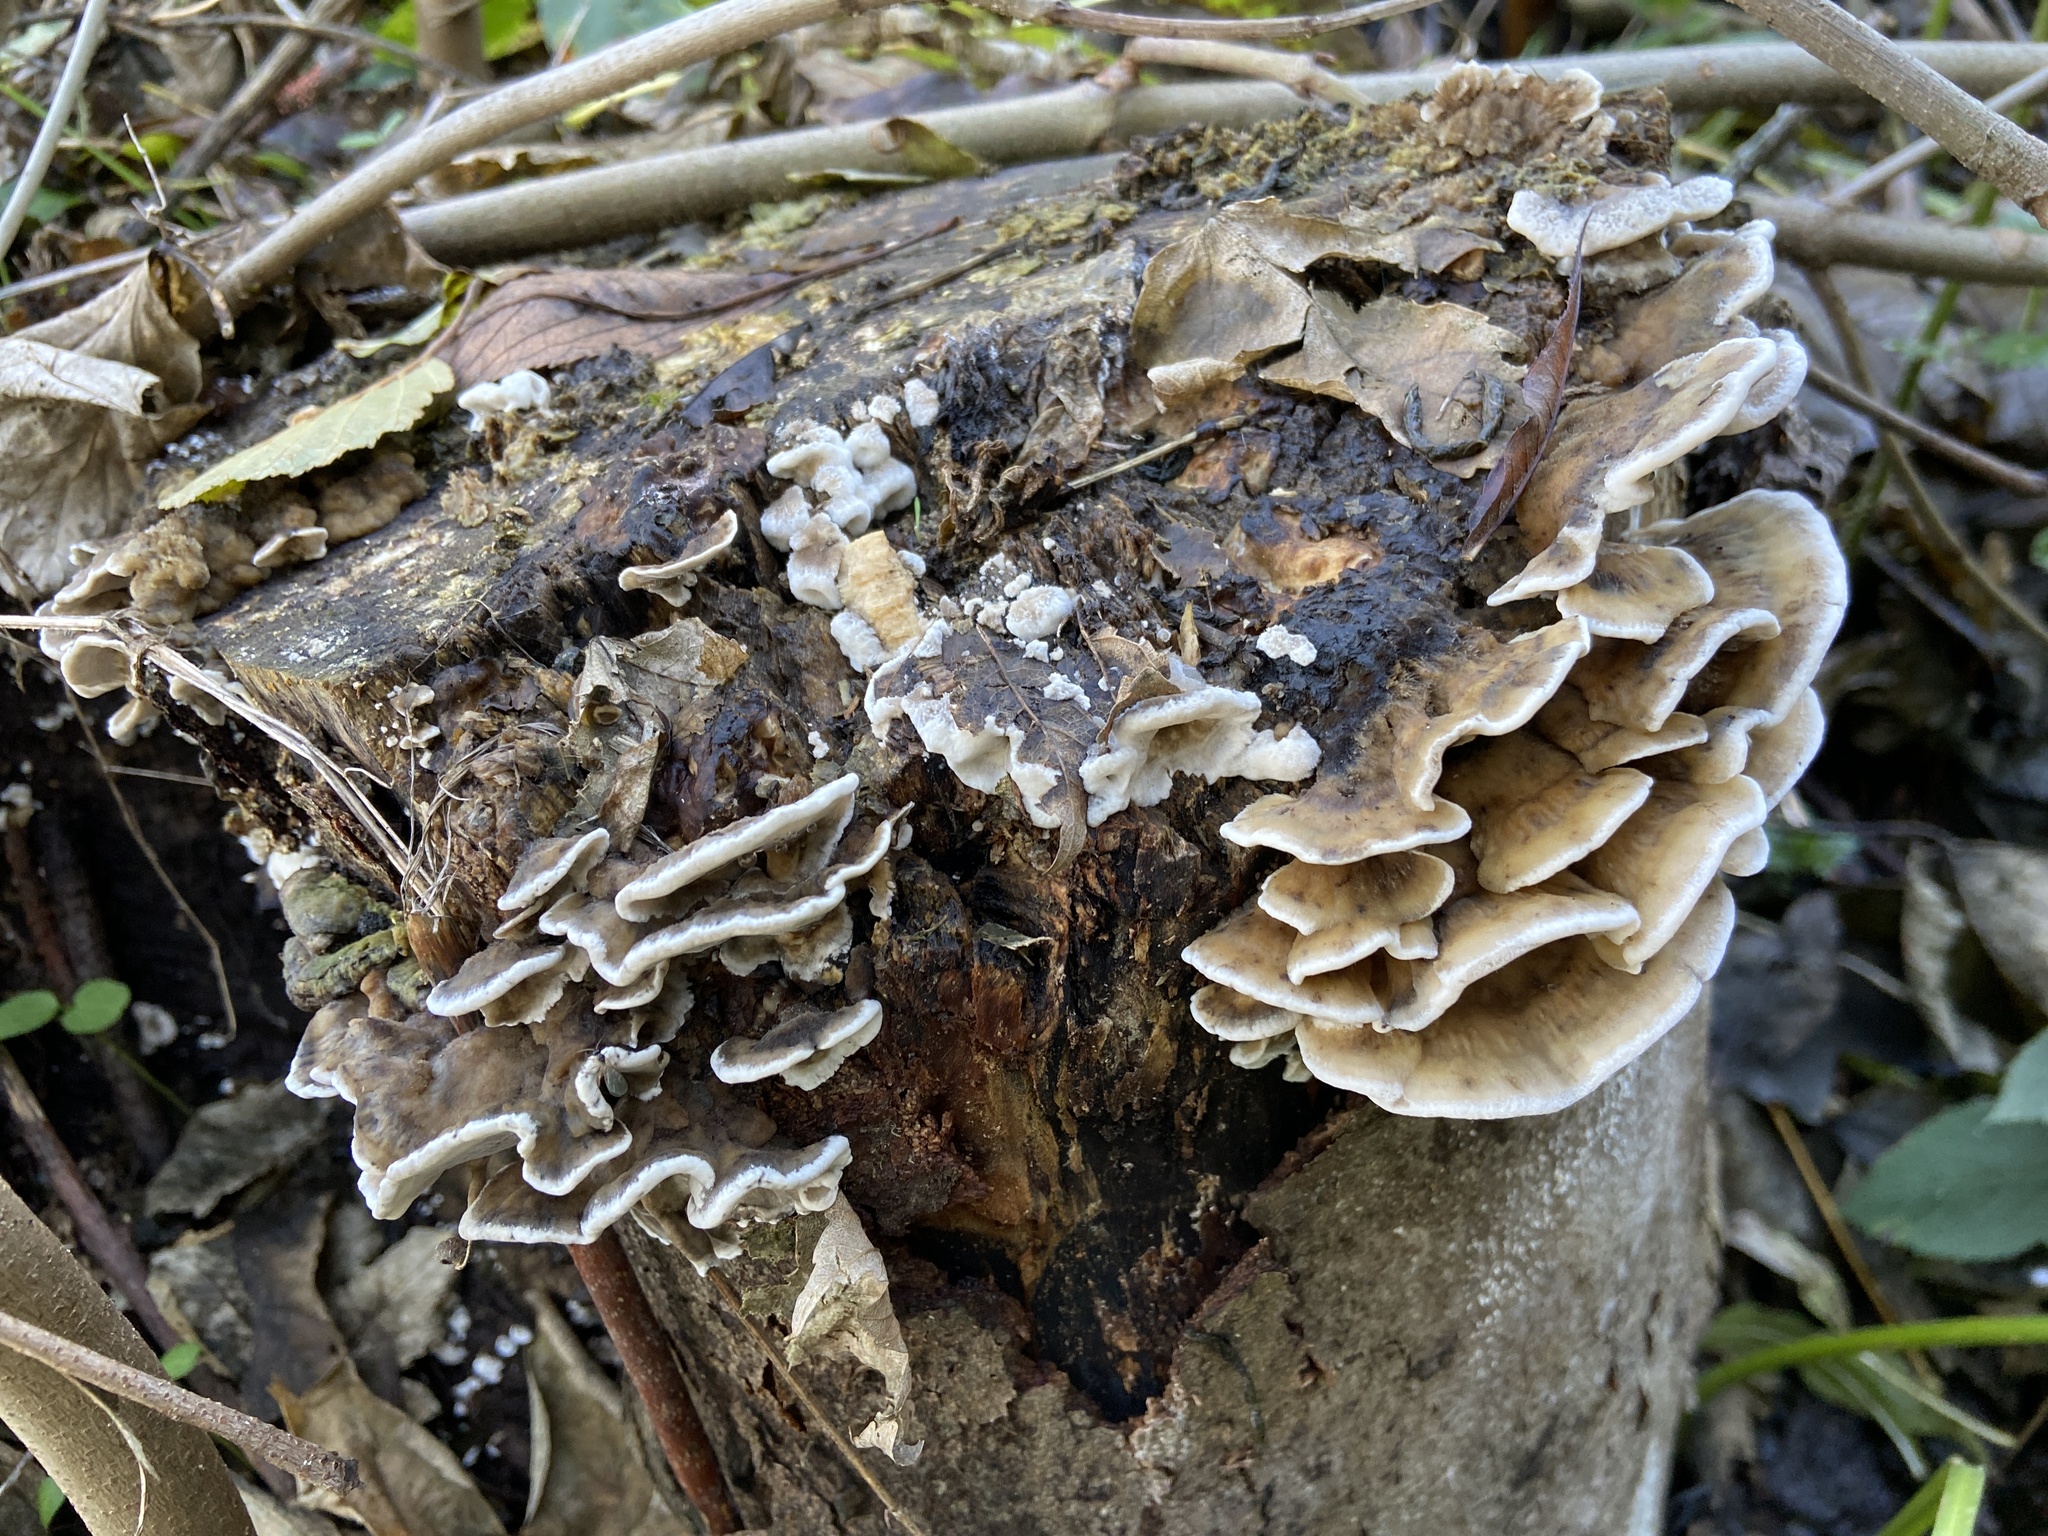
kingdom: Fungi
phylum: Basidiomycota
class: Agaricomycetes
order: Polyporales
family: Phanerochaetaceae
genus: Bjerkandera
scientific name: Bjerkandera adusta
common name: Smoky bracket
